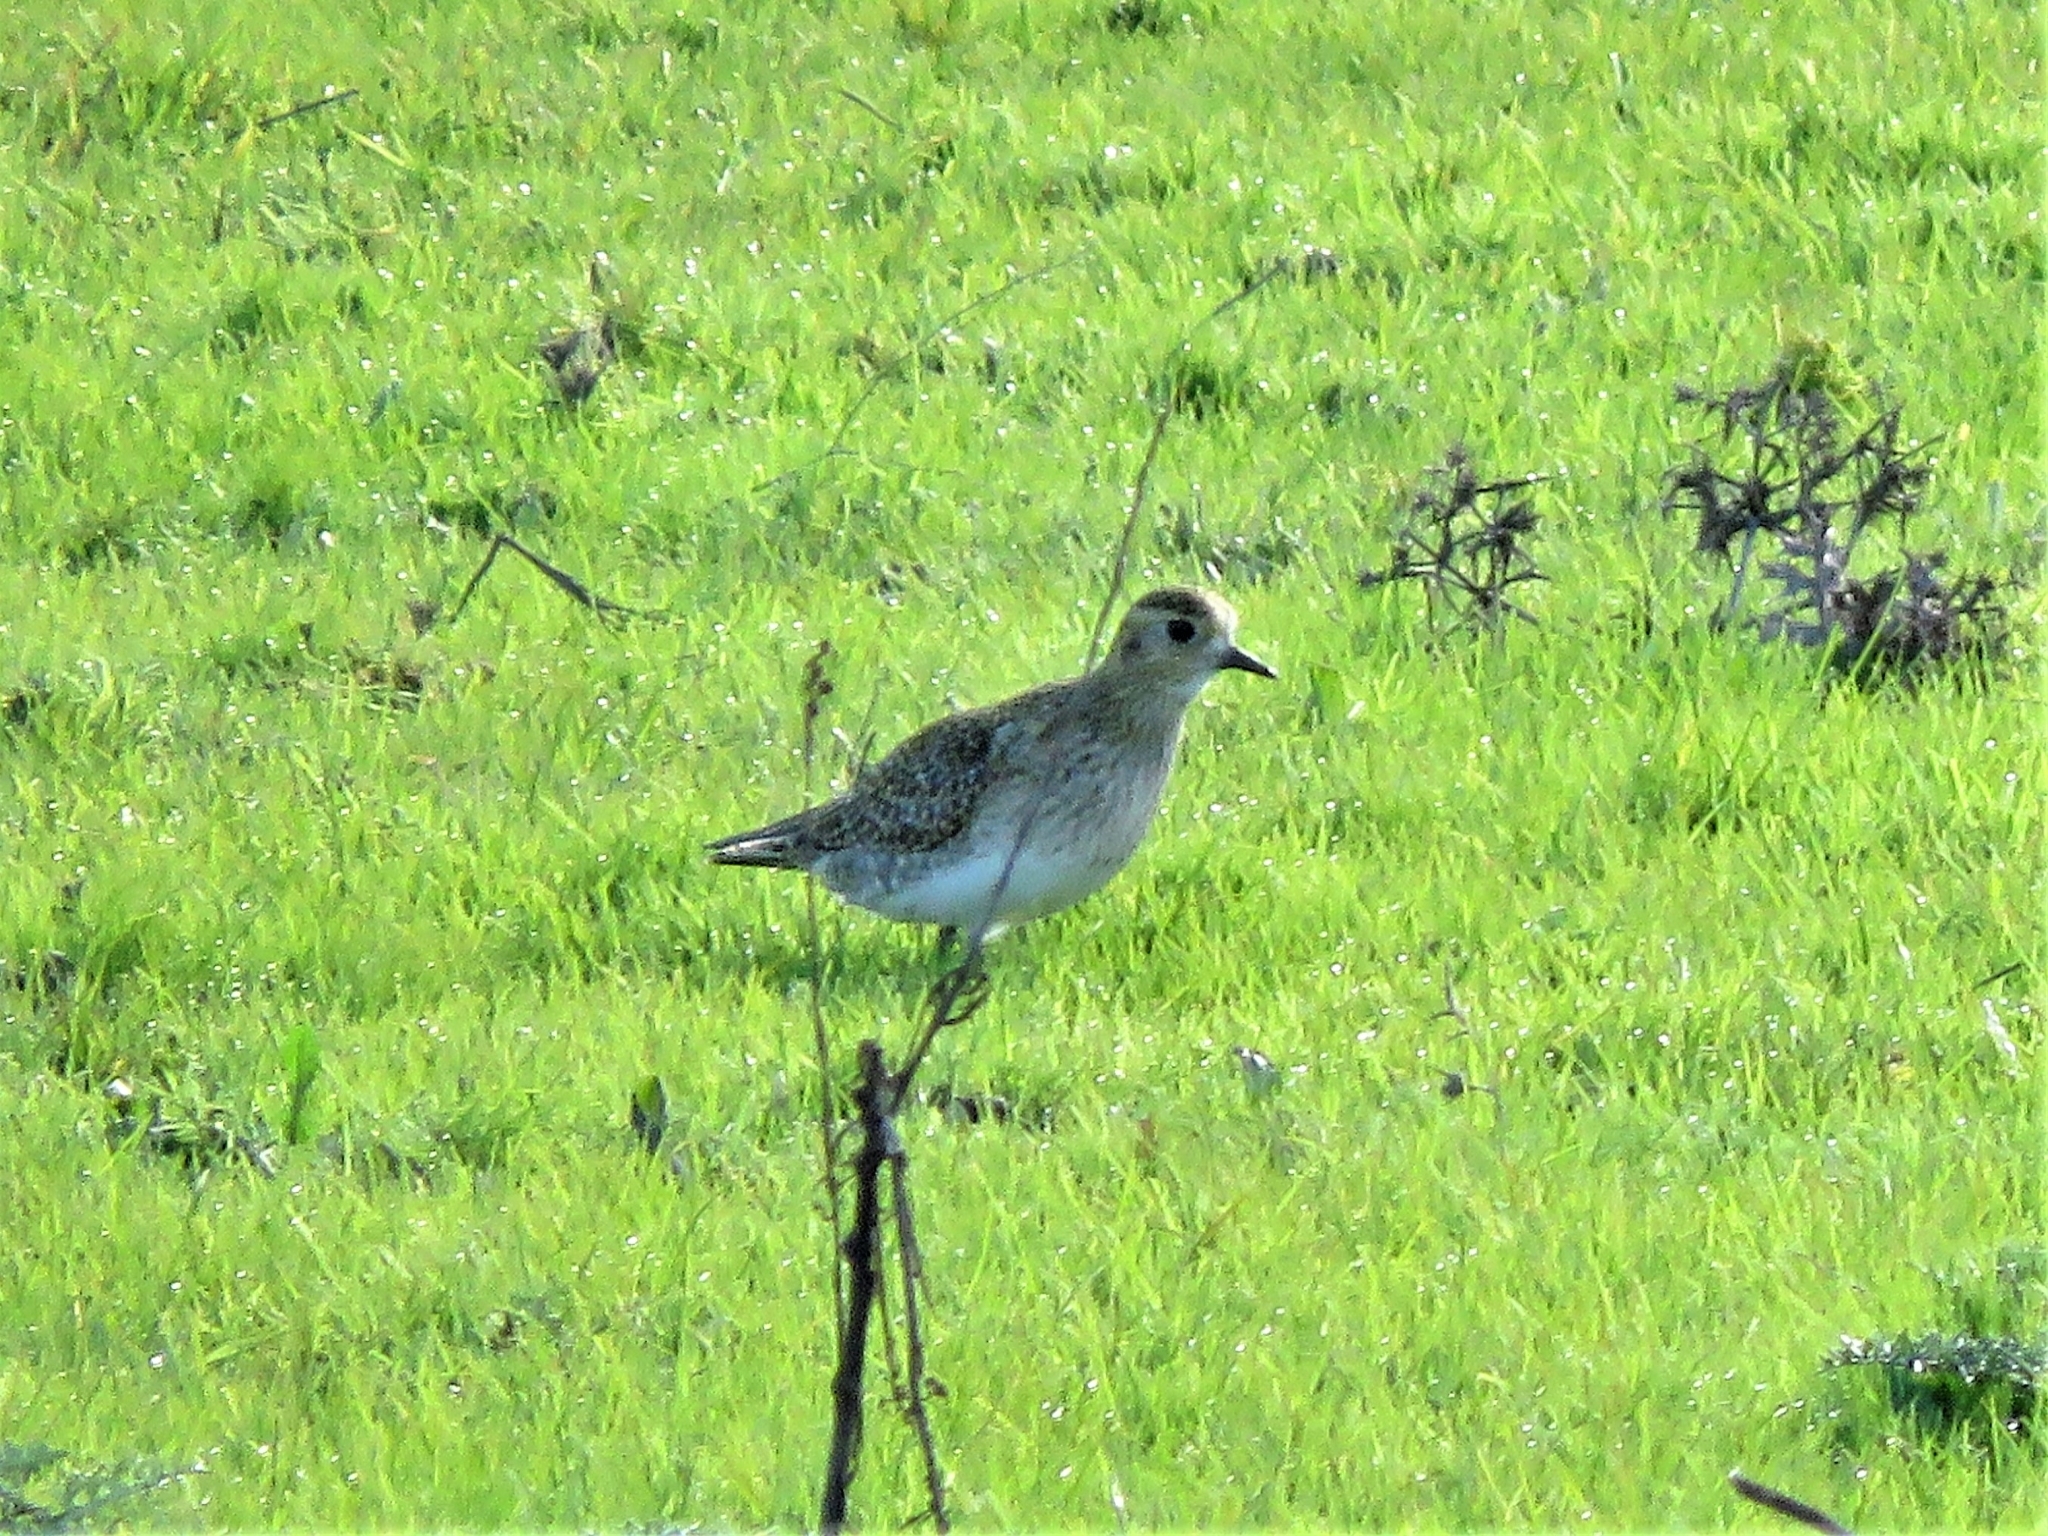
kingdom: Animalia
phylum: Chordata
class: Aves
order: Charadriiformes
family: Charadriidae
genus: Pluvialis
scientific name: Pluvialis apricaria
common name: European golden plover
